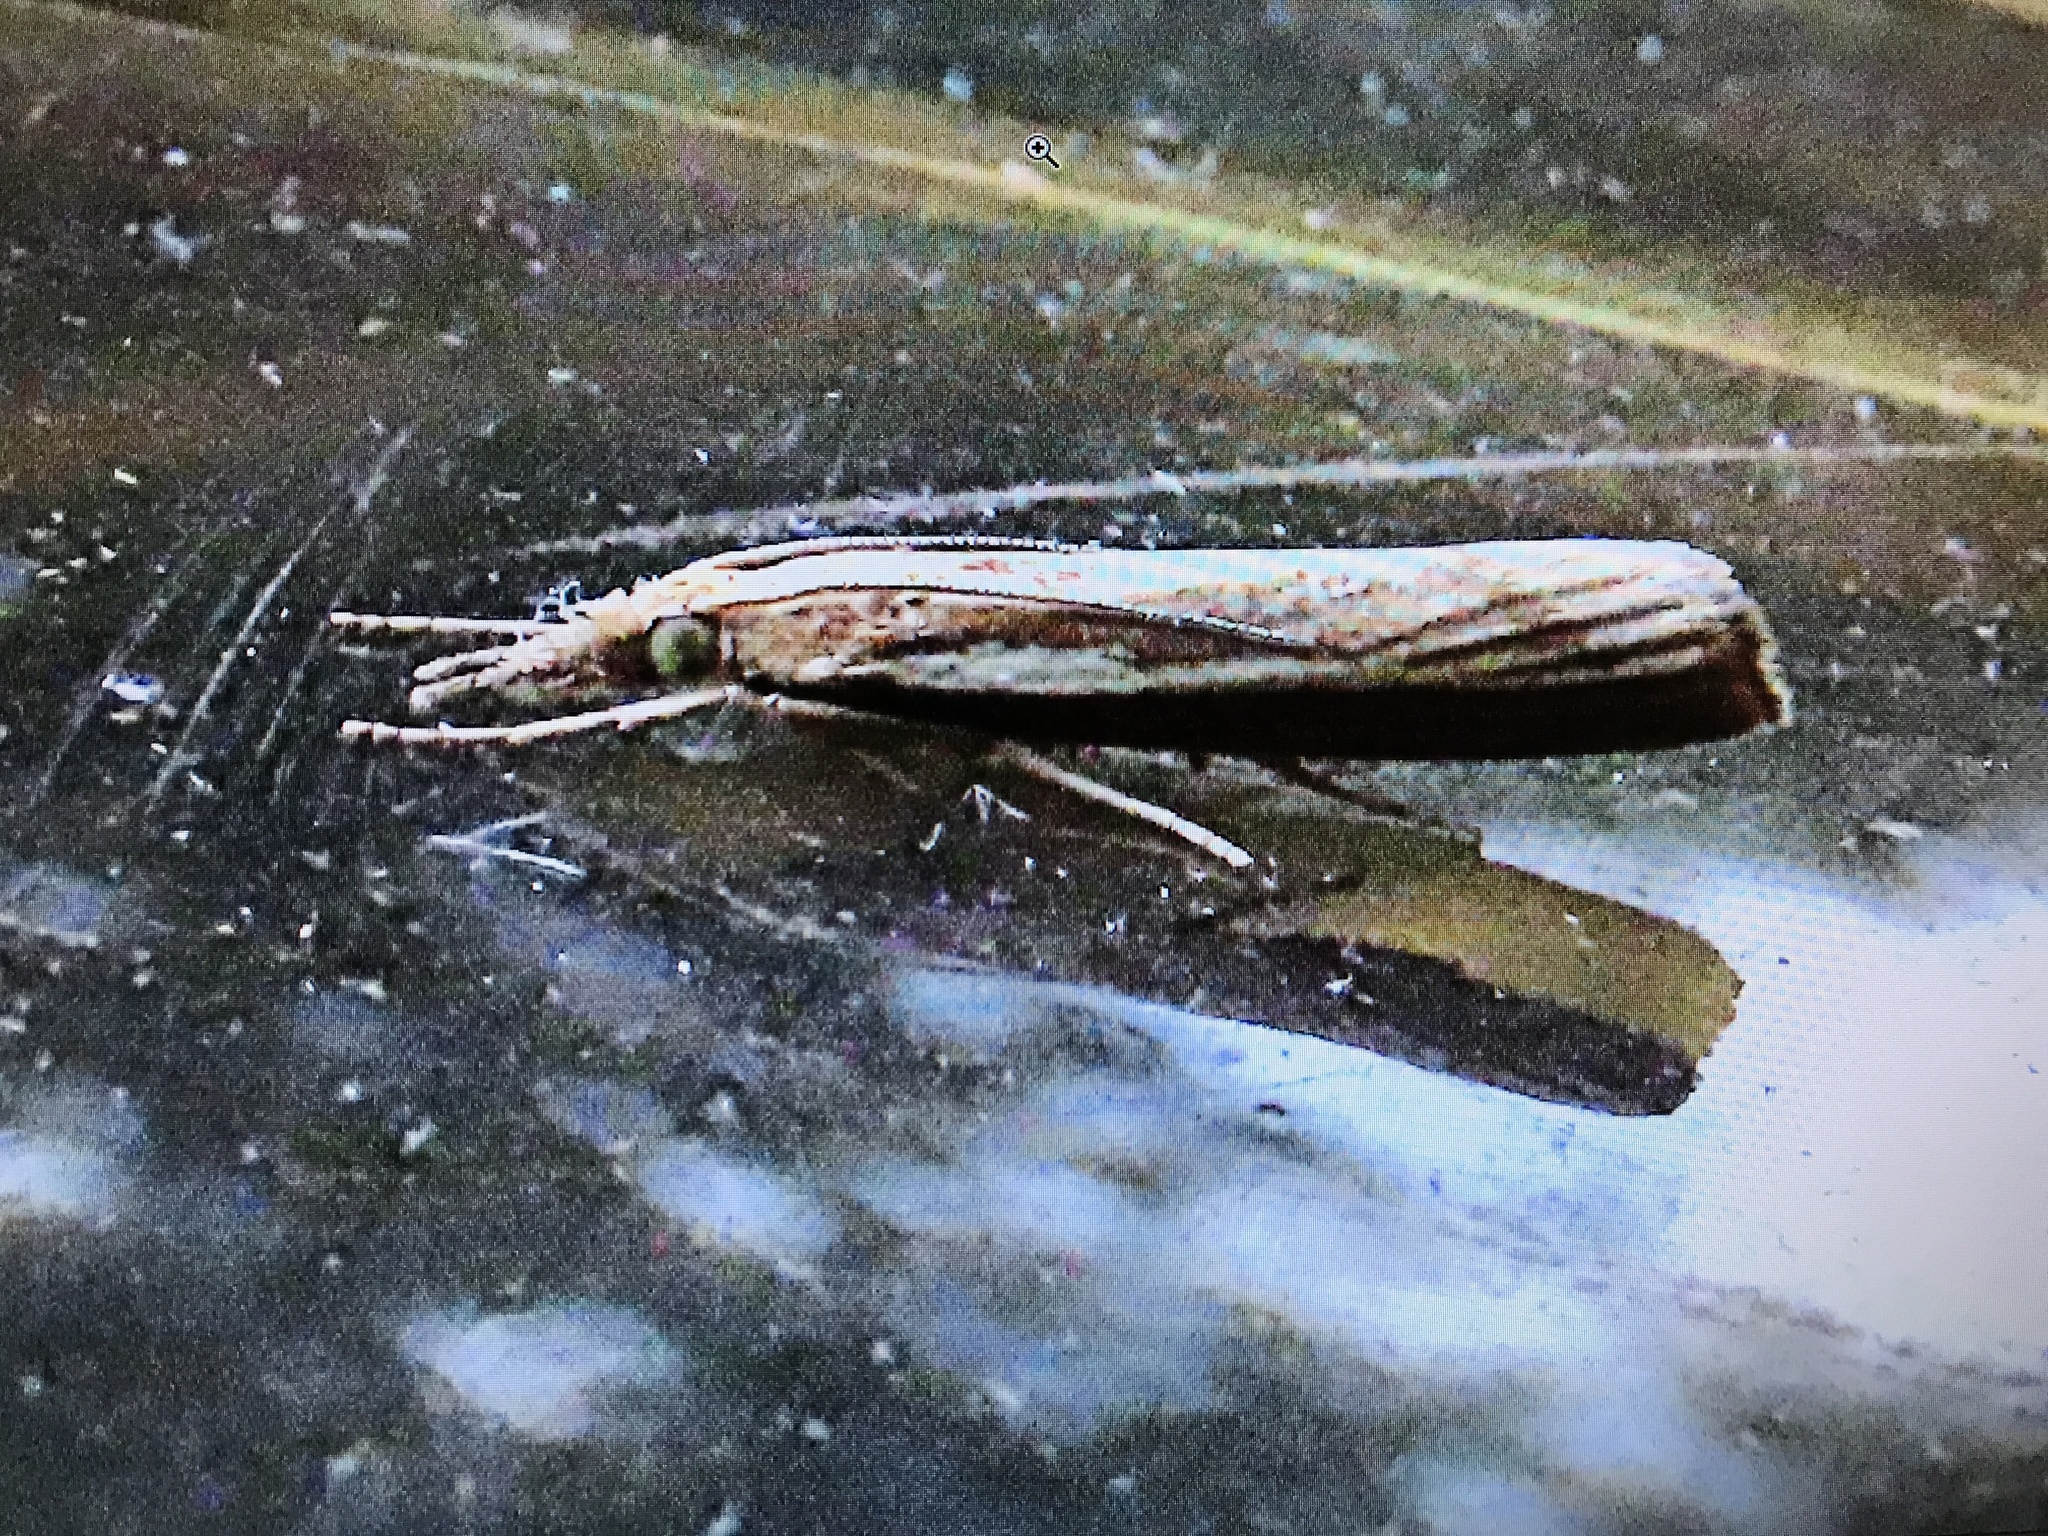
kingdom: Animalia
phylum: Arthropoda
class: Insecta
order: Lepidoptera
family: Crambidae
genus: Agriphila
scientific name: Agriphila tristellus
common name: Common grass-veneer
